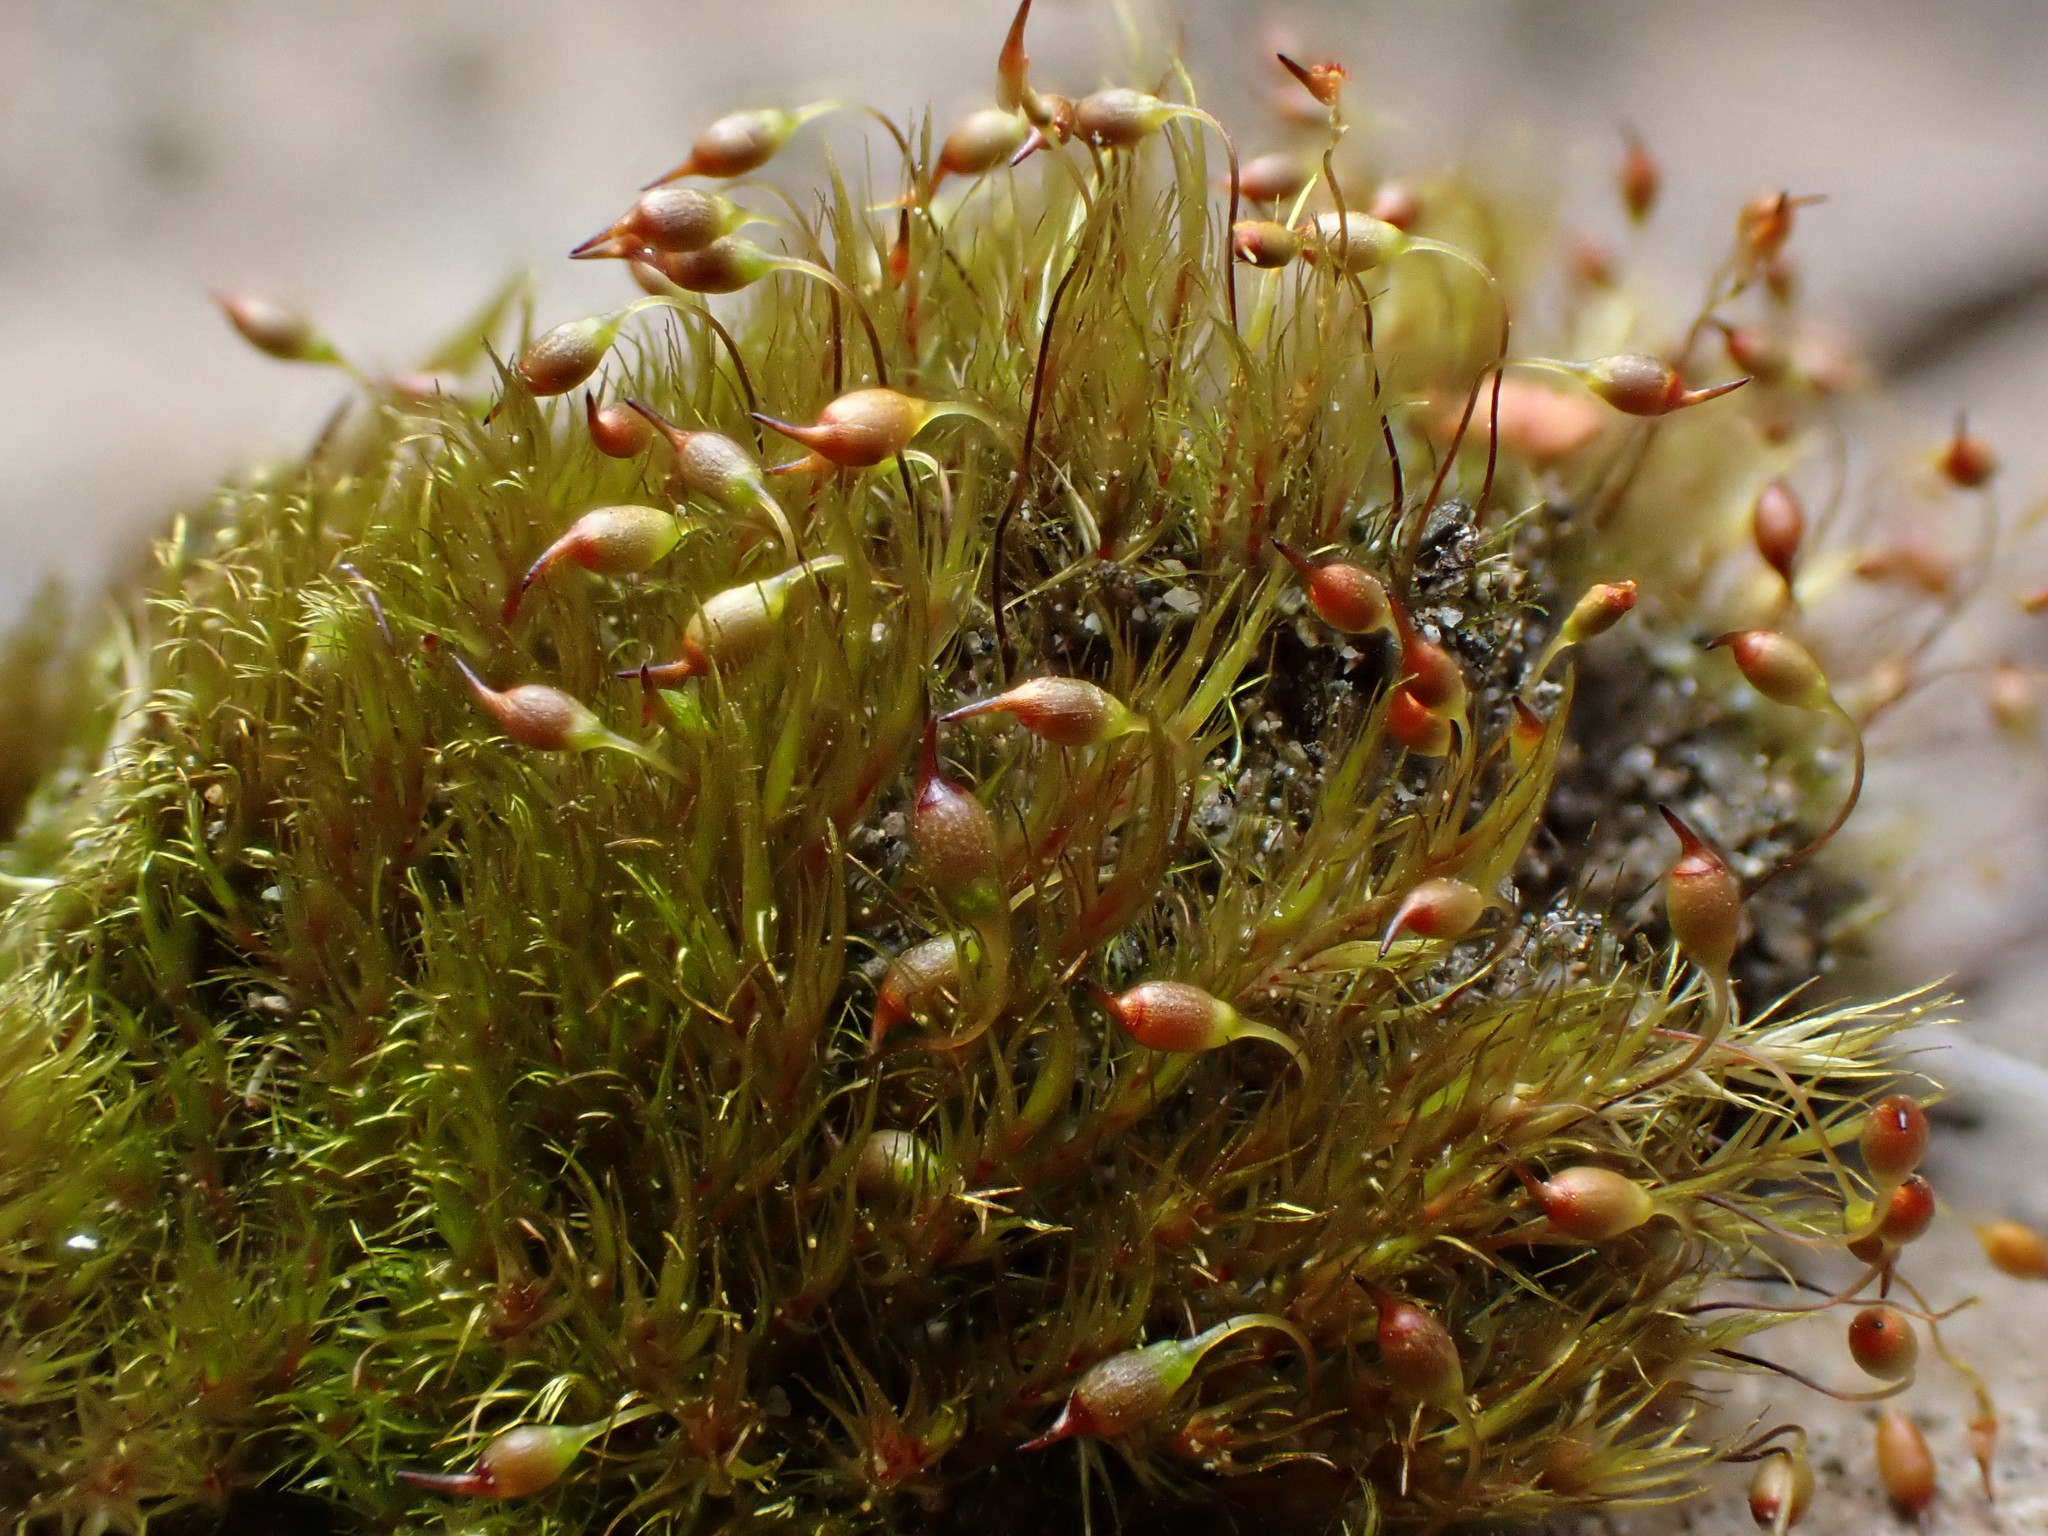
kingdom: Plantae
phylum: Bryophyta
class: Bryopsida
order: Grimmiales
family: Seligeriaceae
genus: Blindia
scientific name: Blindia acuta
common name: Sharp-leaved blind's moss
